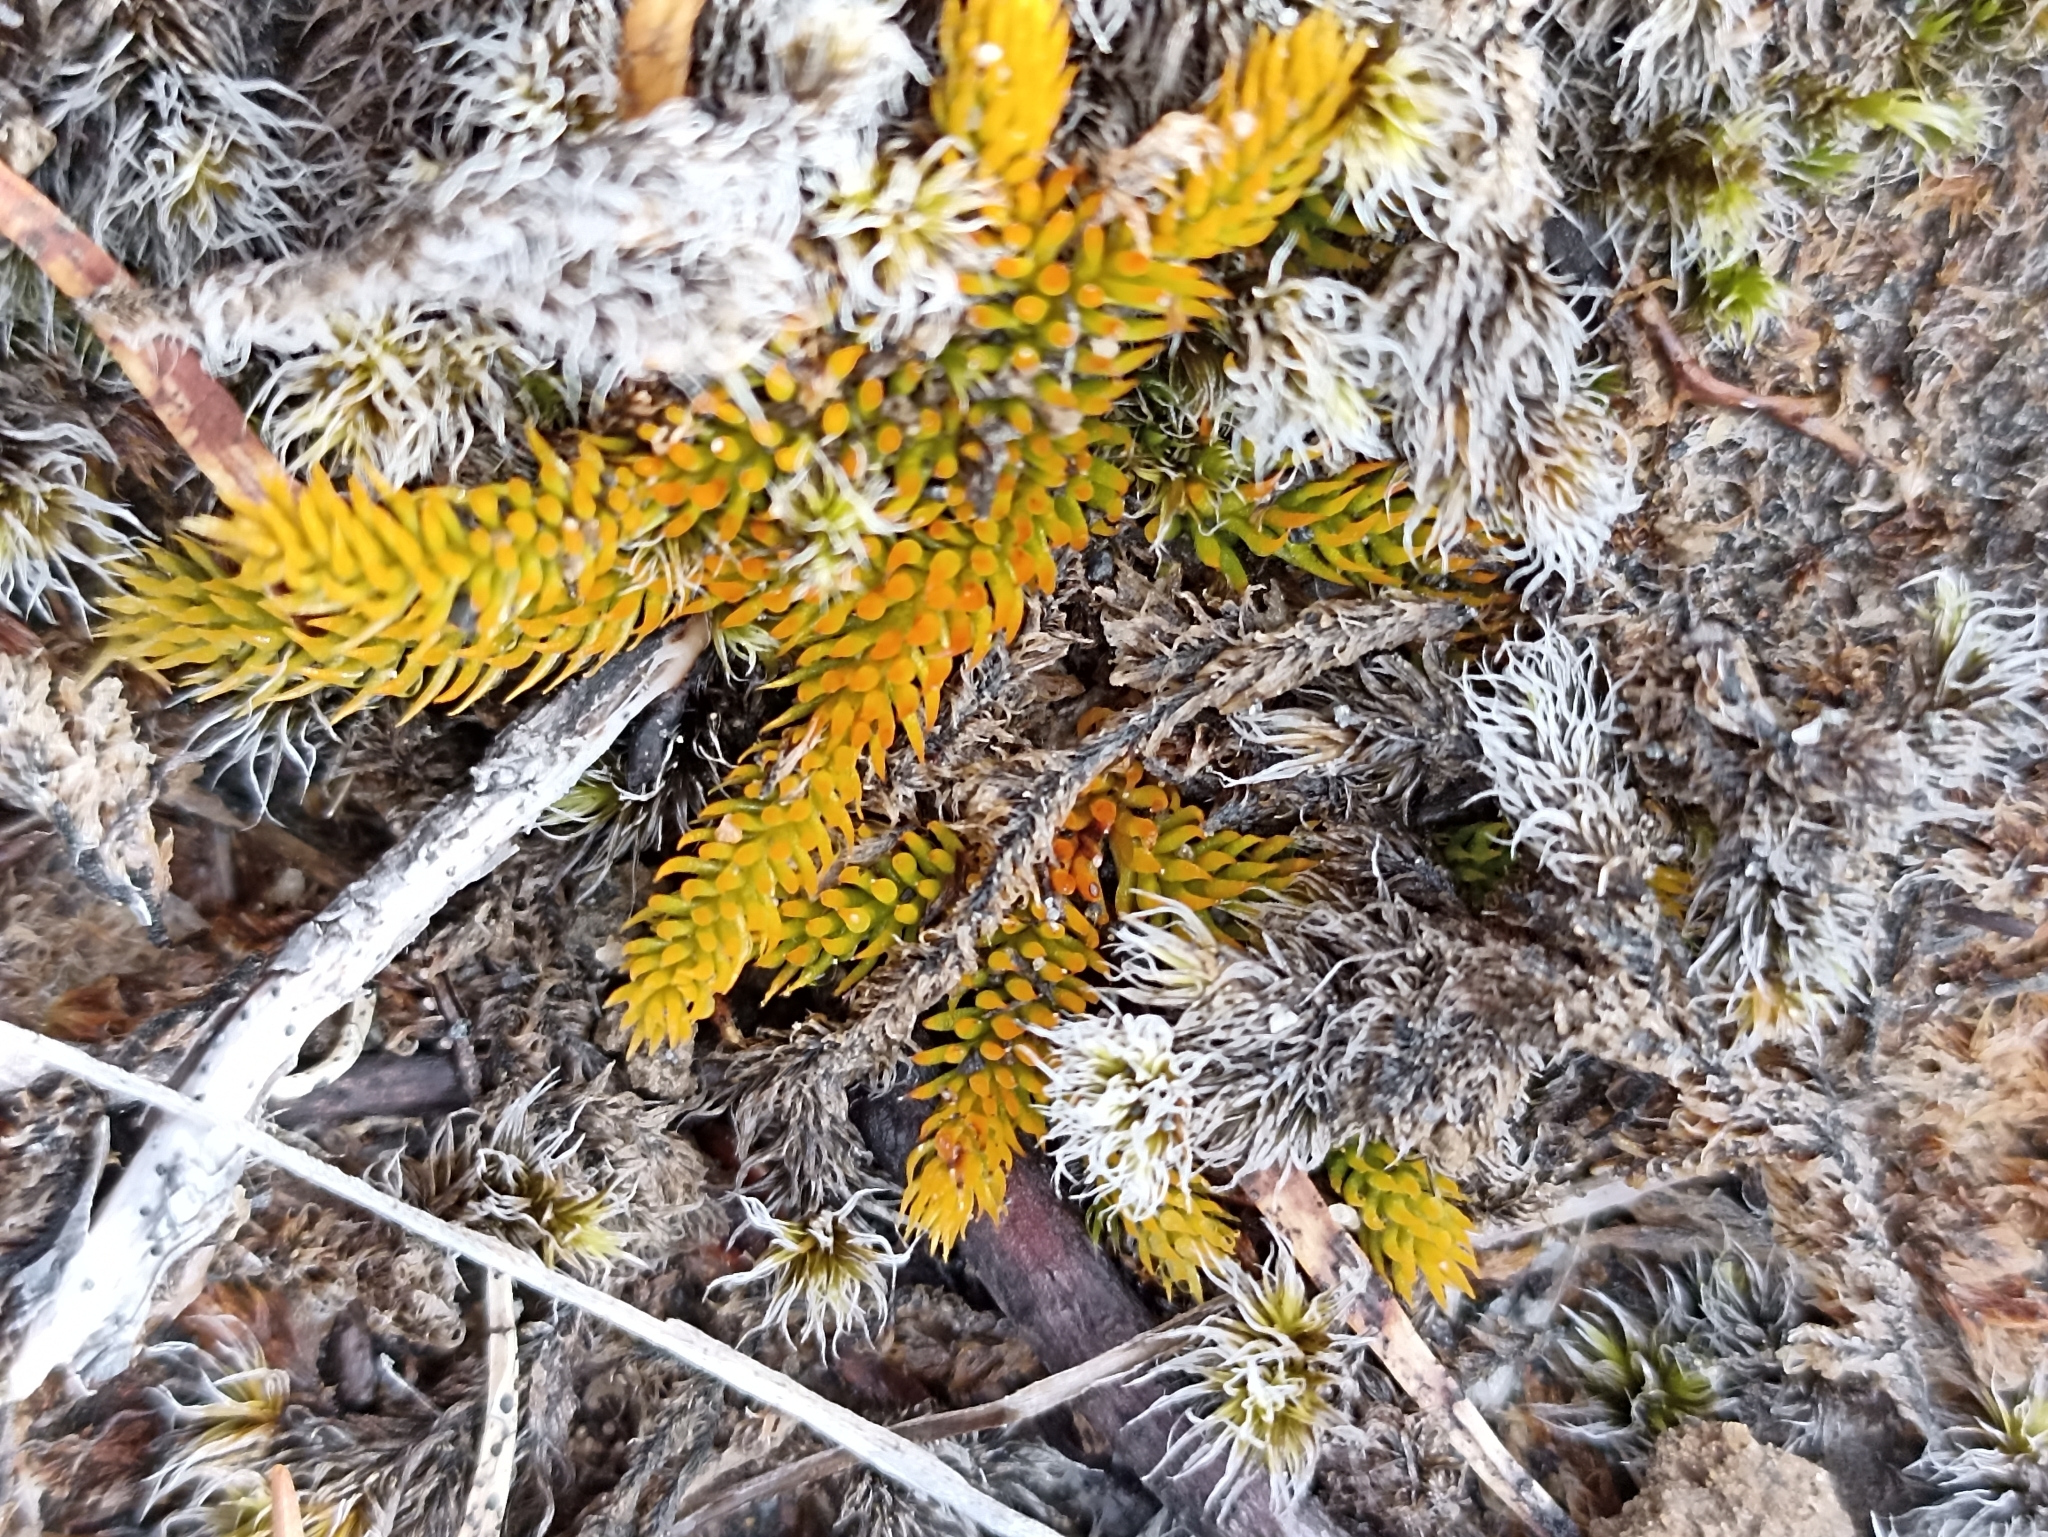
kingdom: Plantae
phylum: Tracheophyta
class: Lycopodiopsida
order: Lycopodiales
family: Lycopodiaceae
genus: Austrolycopodium
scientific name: Austrolycopodium fastigiatum
